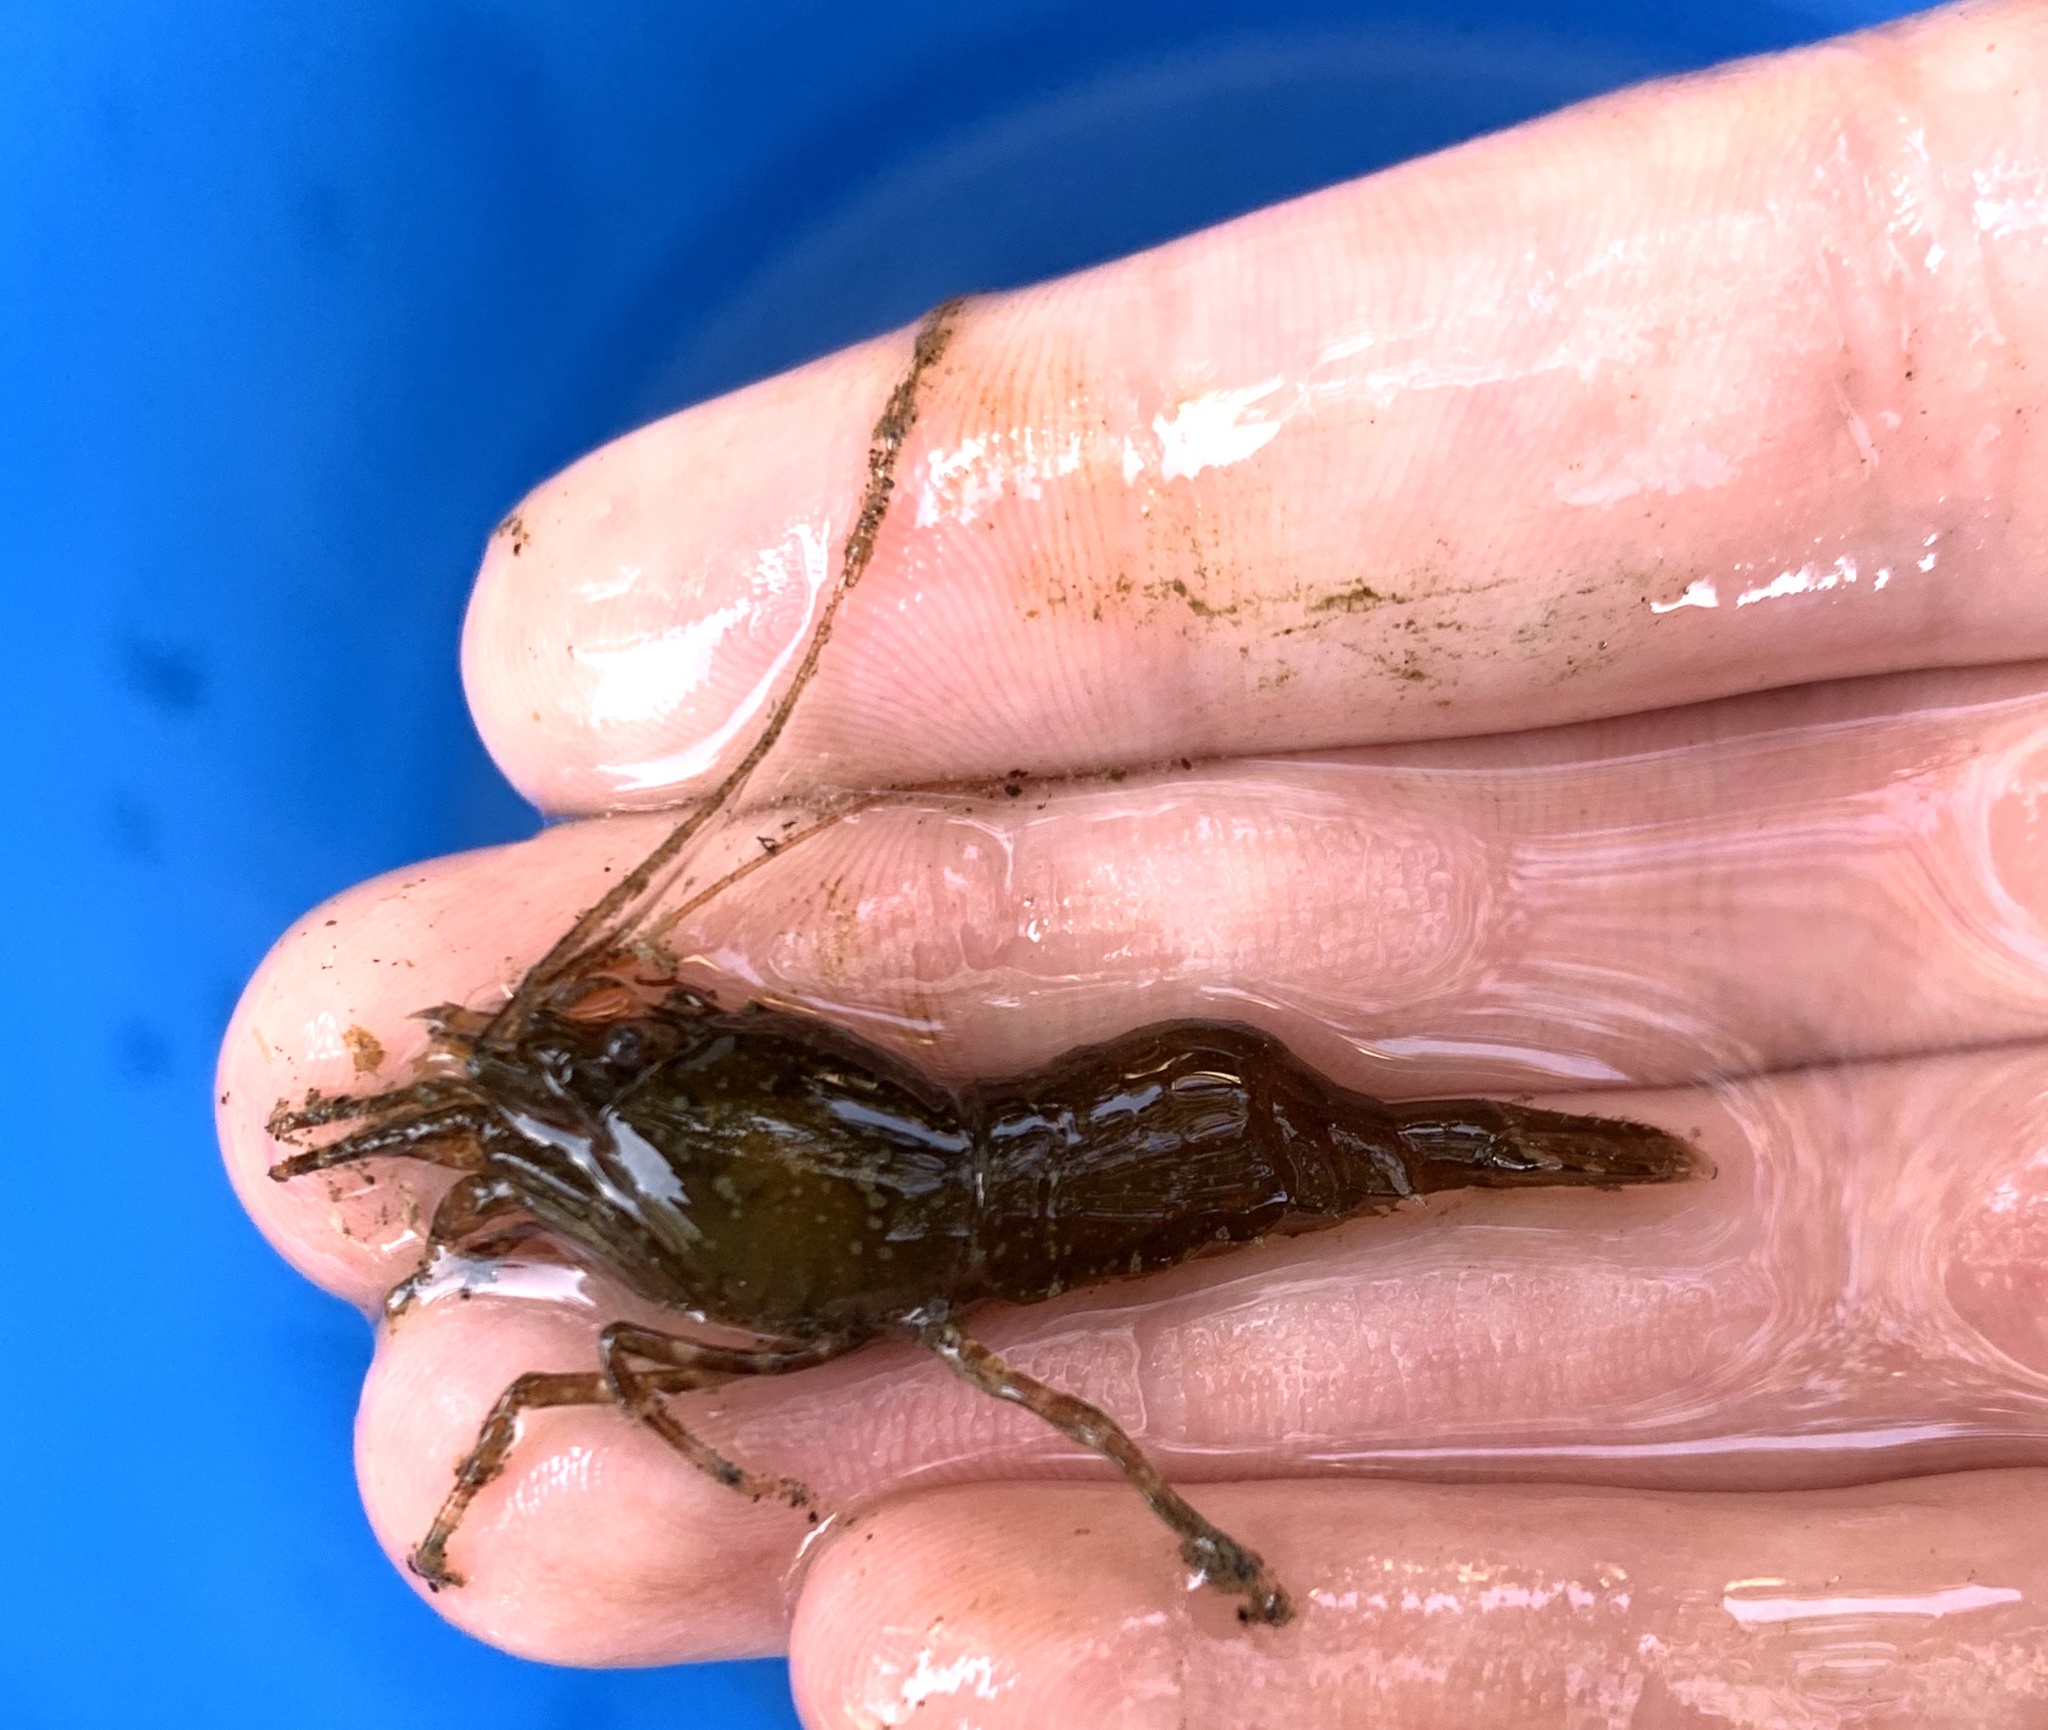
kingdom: Animalia
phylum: Arthropoda
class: Malacostraca
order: Decapoda
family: Pandalidae
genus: Pandalus
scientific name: Pandalus danae
